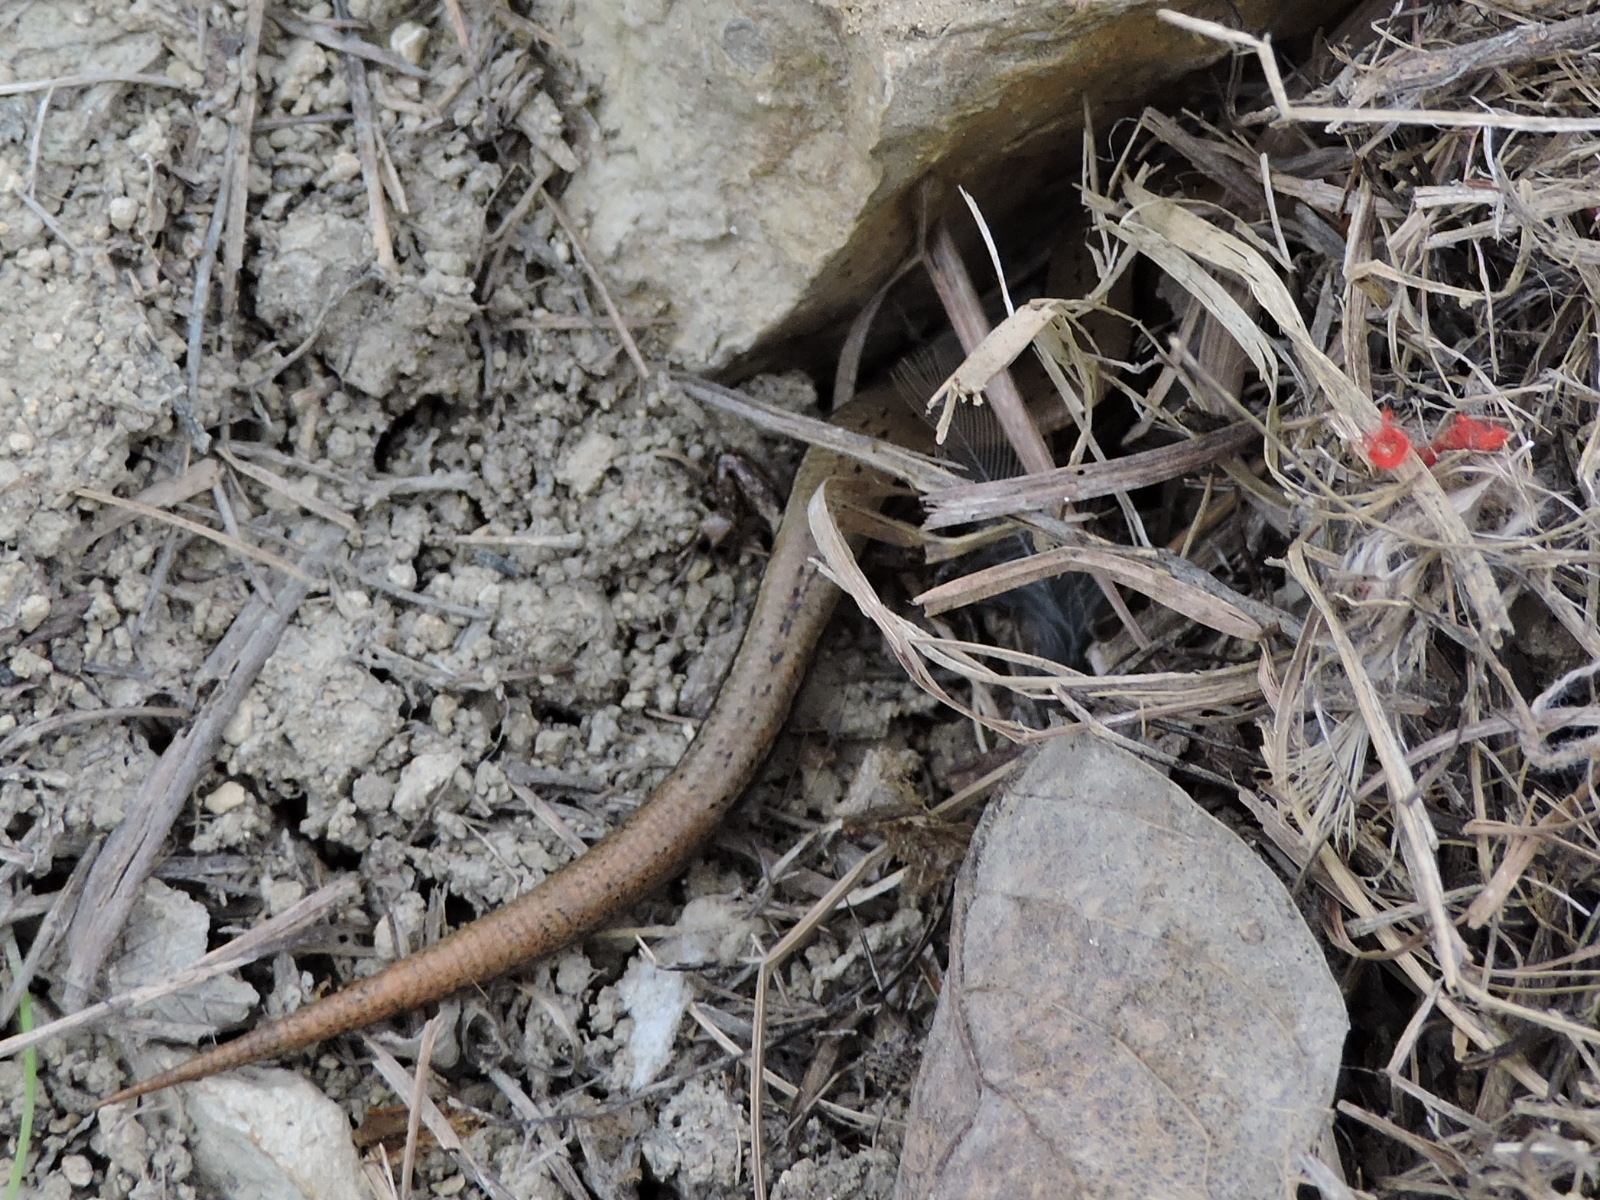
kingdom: Animalia
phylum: Chordata
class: Squamata
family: Scincidae
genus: Scincella
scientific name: Scincella lateralis
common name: Ground skink
